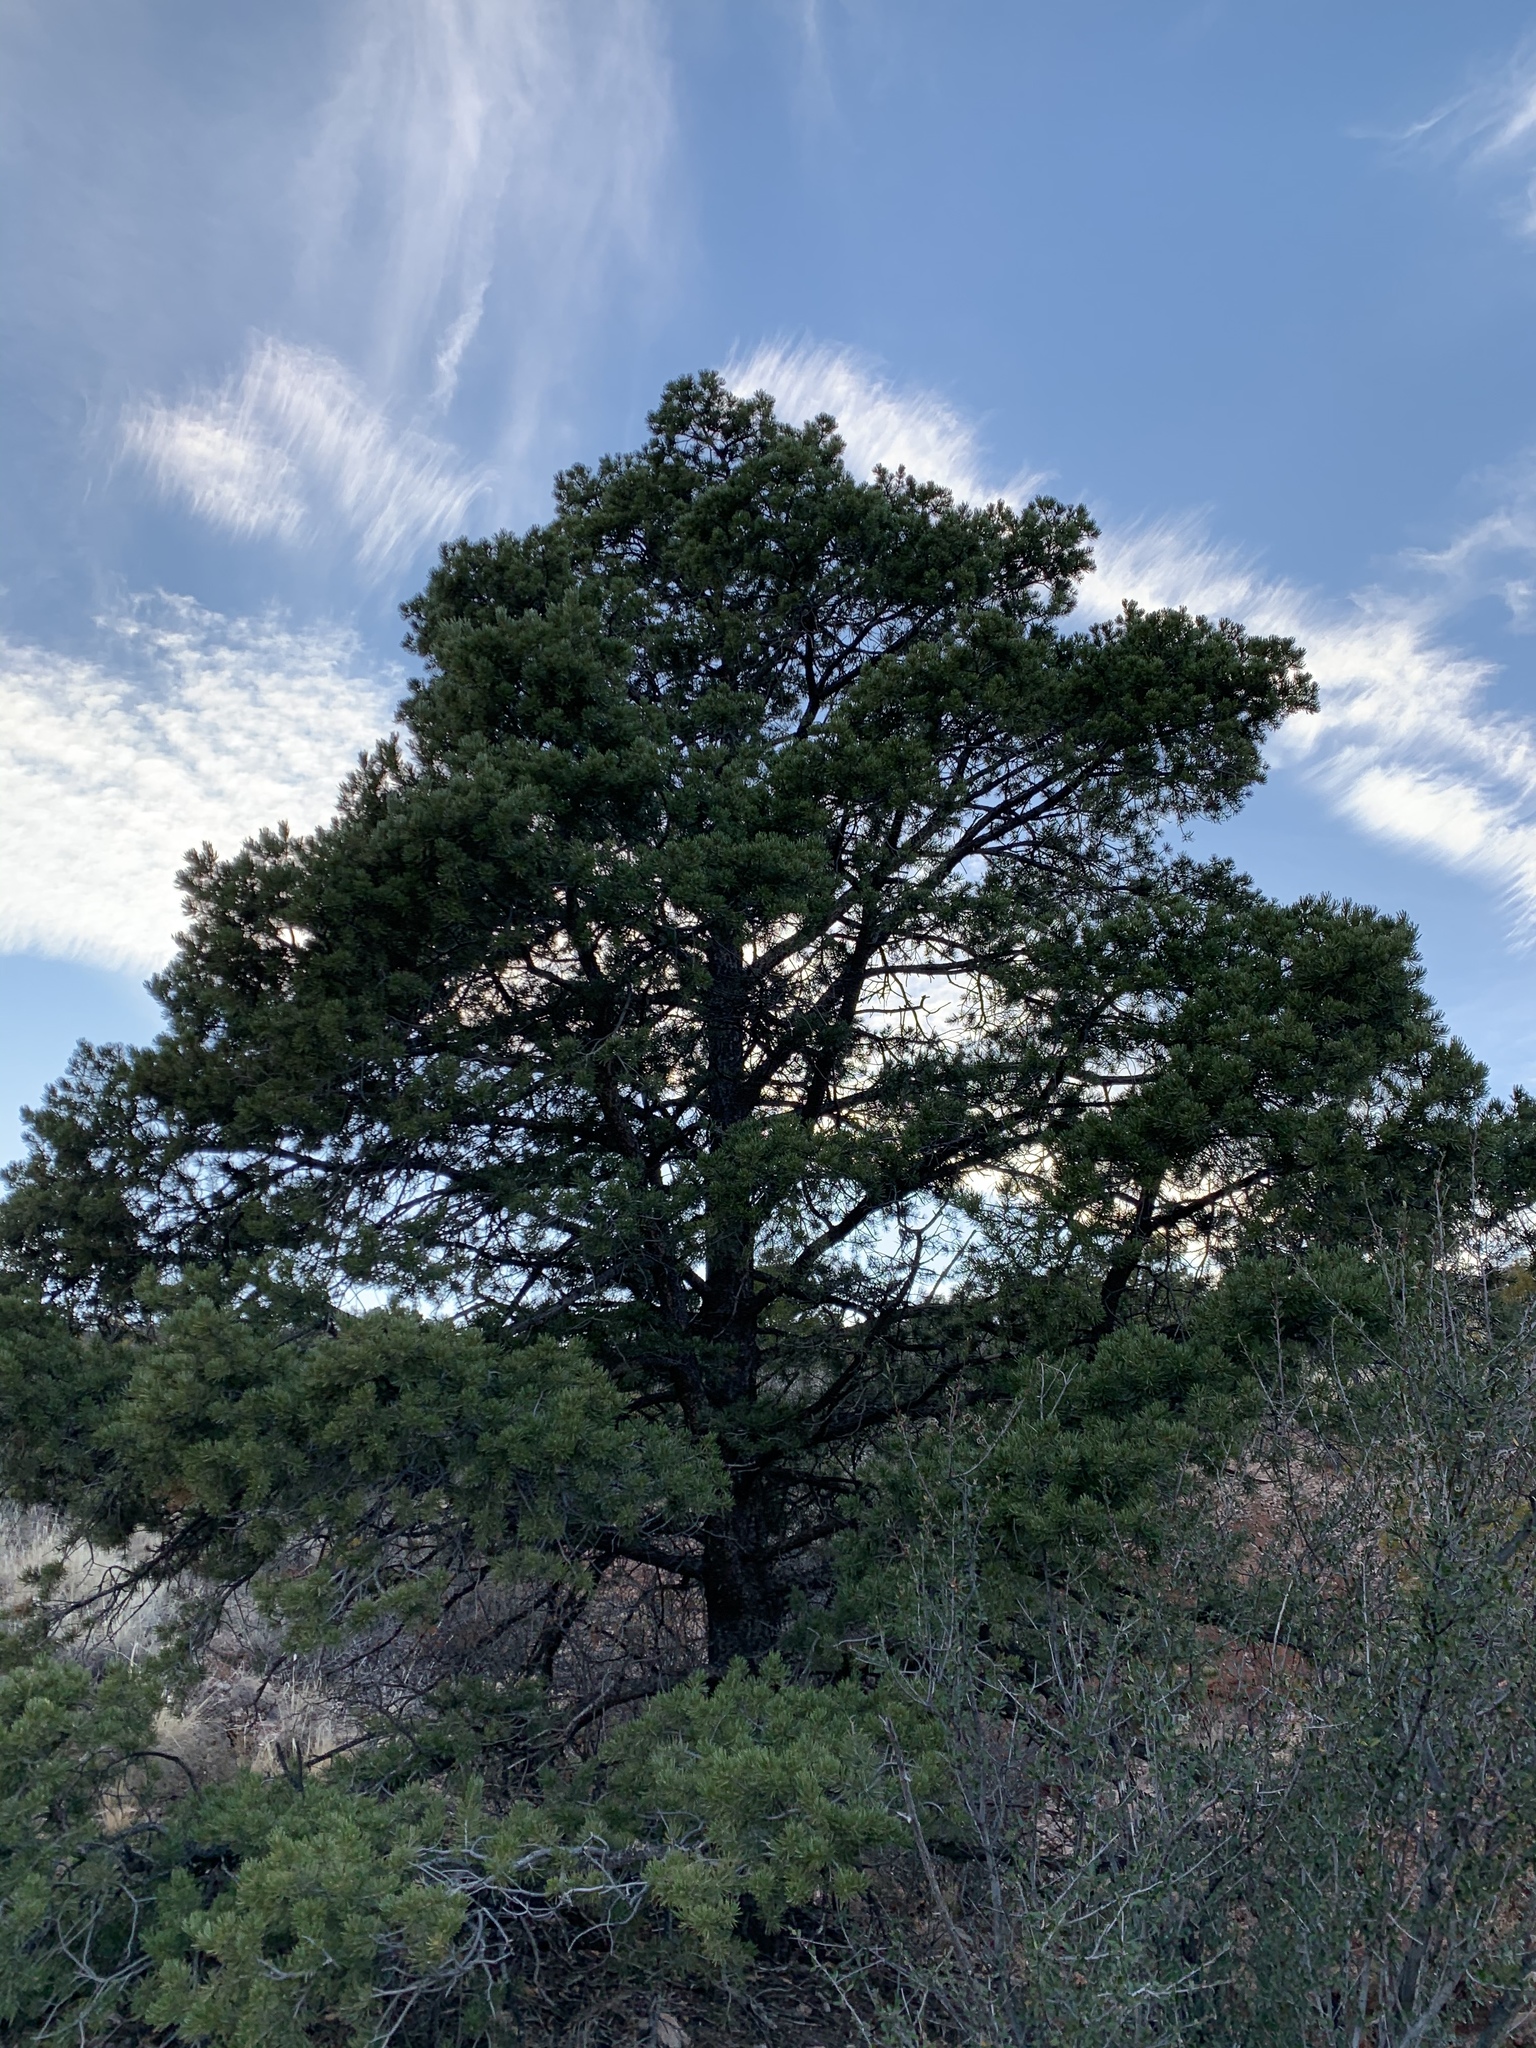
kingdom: Plantae
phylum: Tracheophyta
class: Pinopsida
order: Pinales
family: Pinaceae
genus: Pinus
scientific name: Pinus edulis
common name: Colorado pinyon
